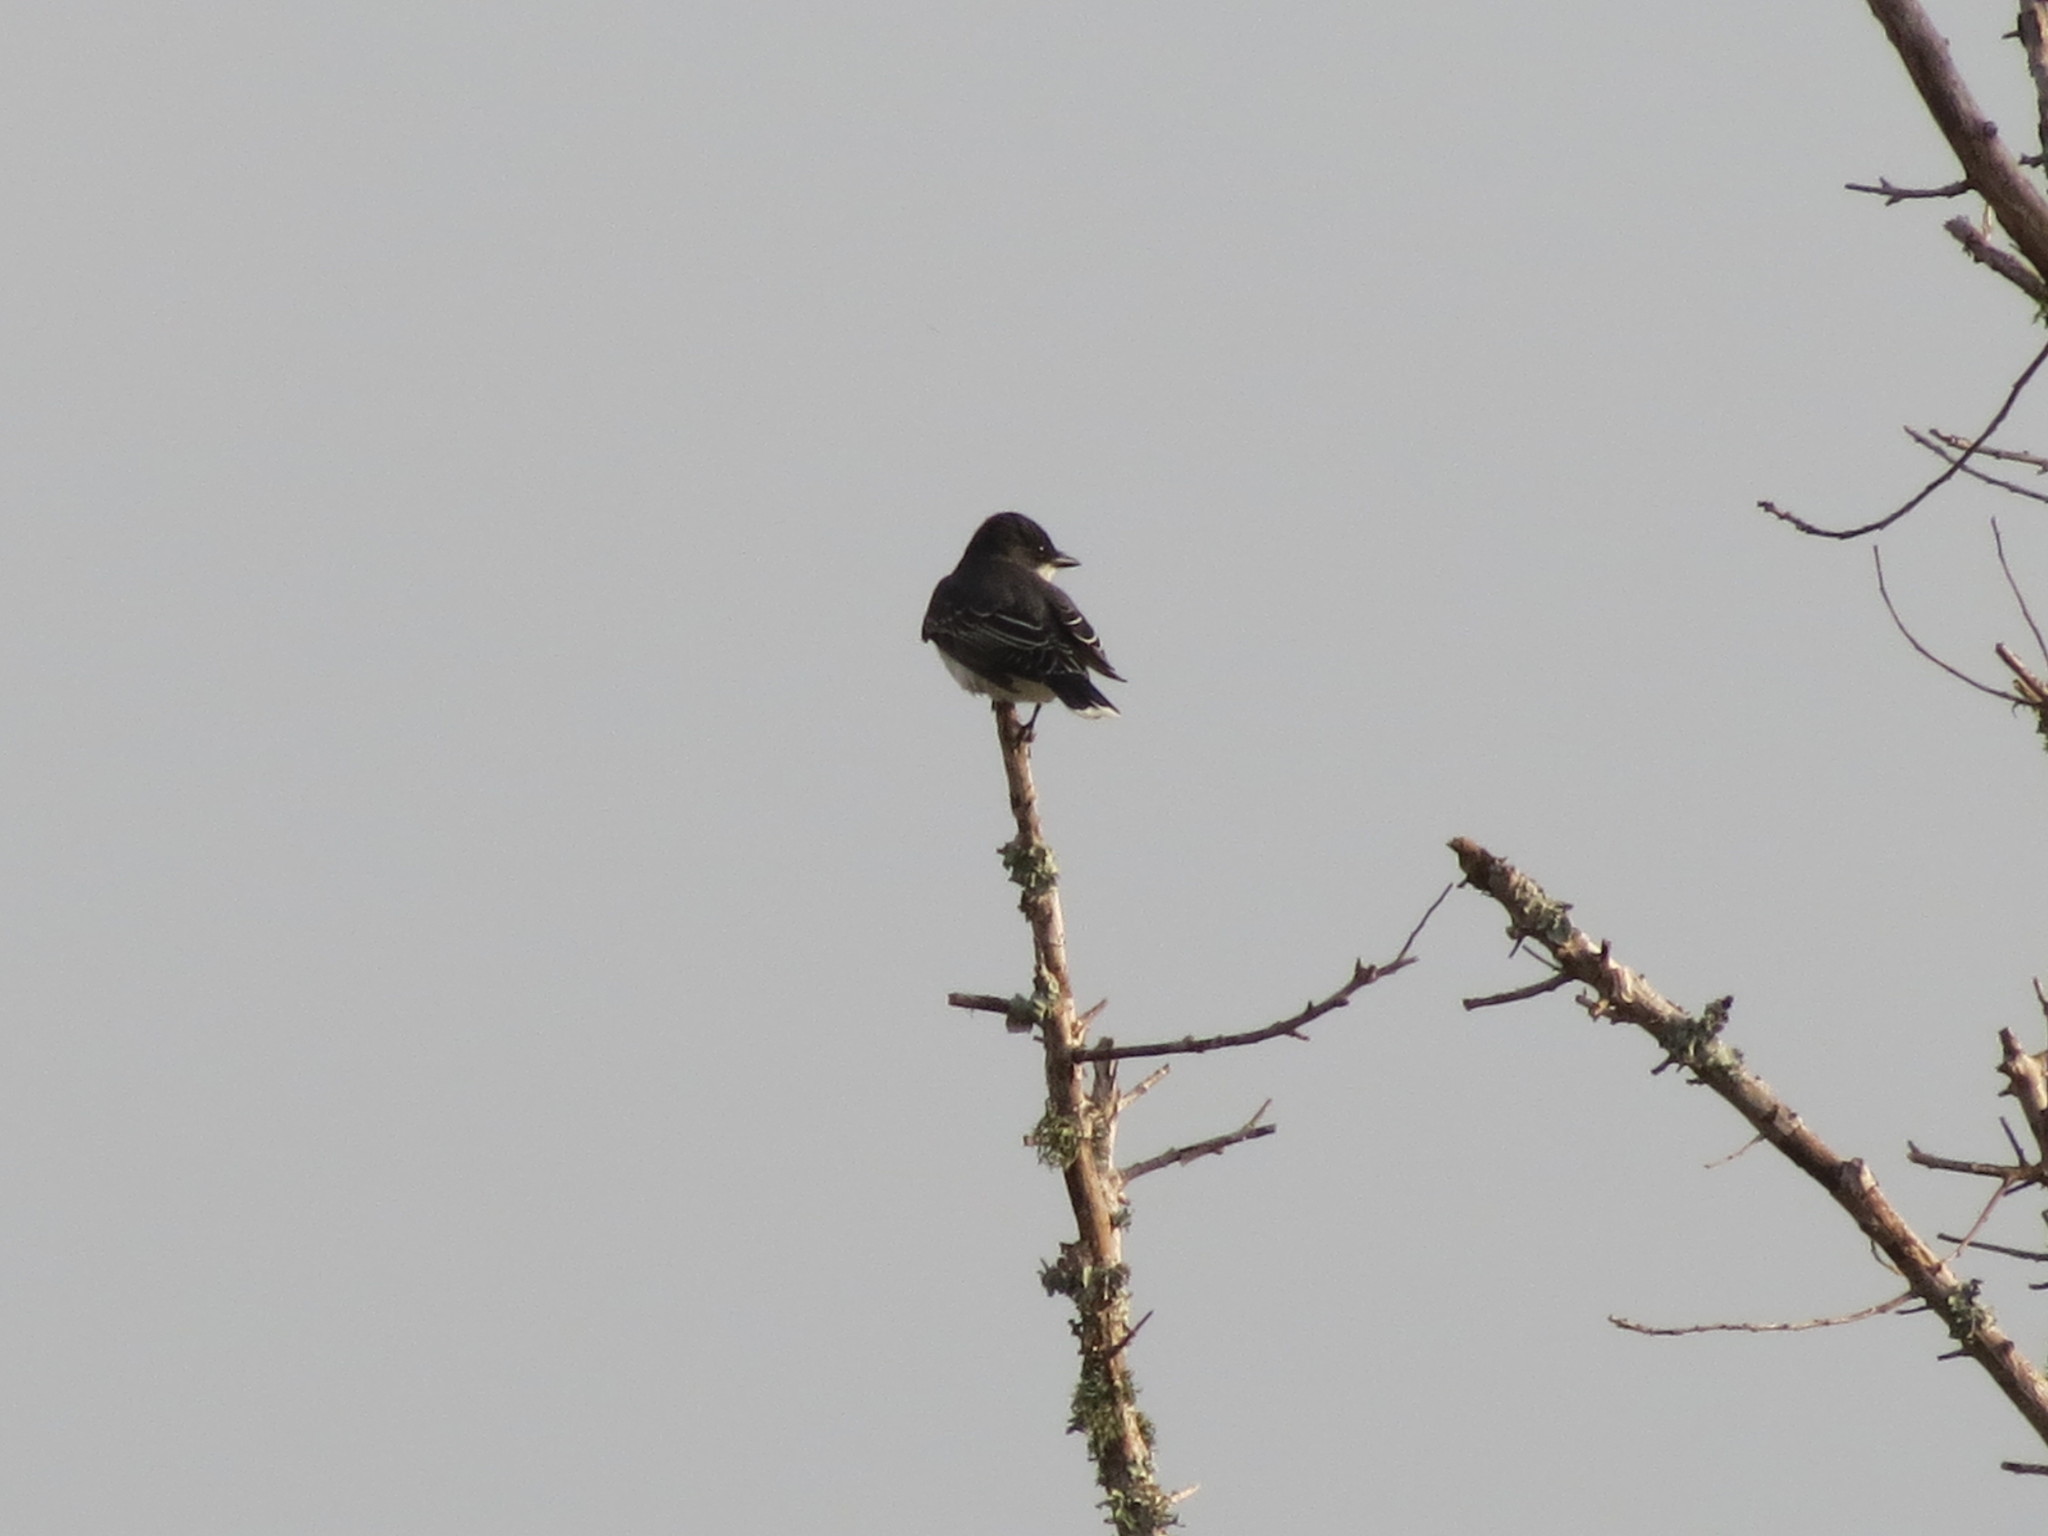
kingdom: Animalia
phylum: Chordata
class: Aves
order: Passeriformes
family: Tyrannidae
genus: Tyrannus
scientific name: Tyrannus tyrannus
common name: Eastern kingbird
